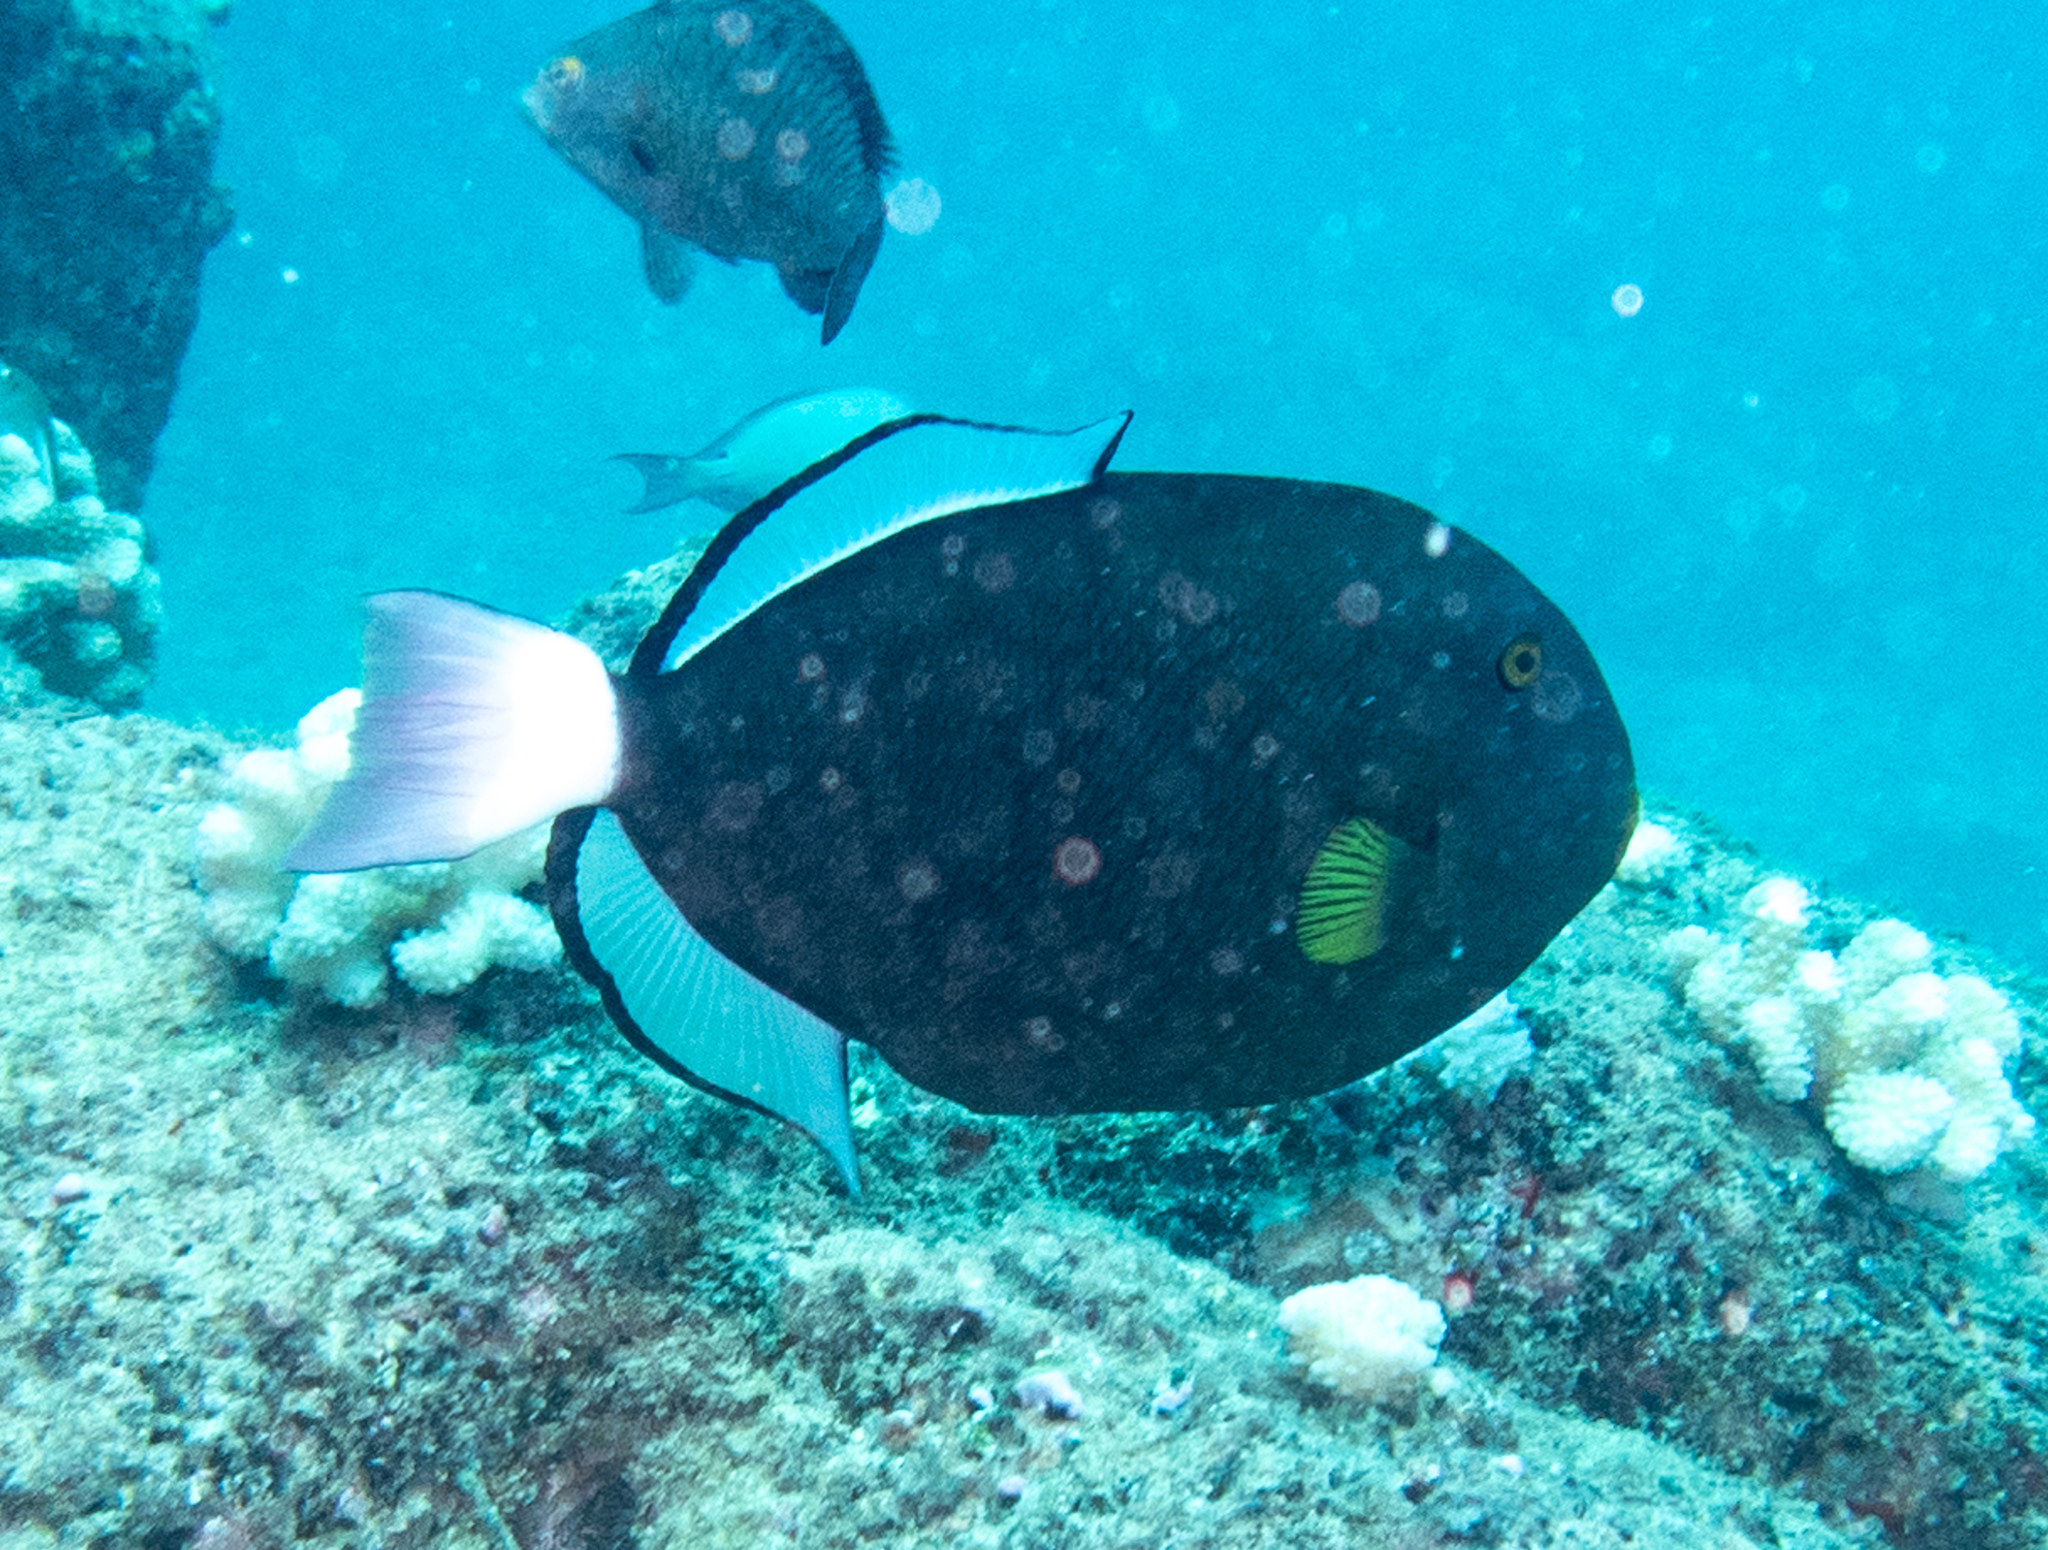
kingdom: Animalia
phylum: Chordata
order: Tetraodontiformes
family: Balistidae
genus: Melichthys
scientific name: Melichthys vidua
